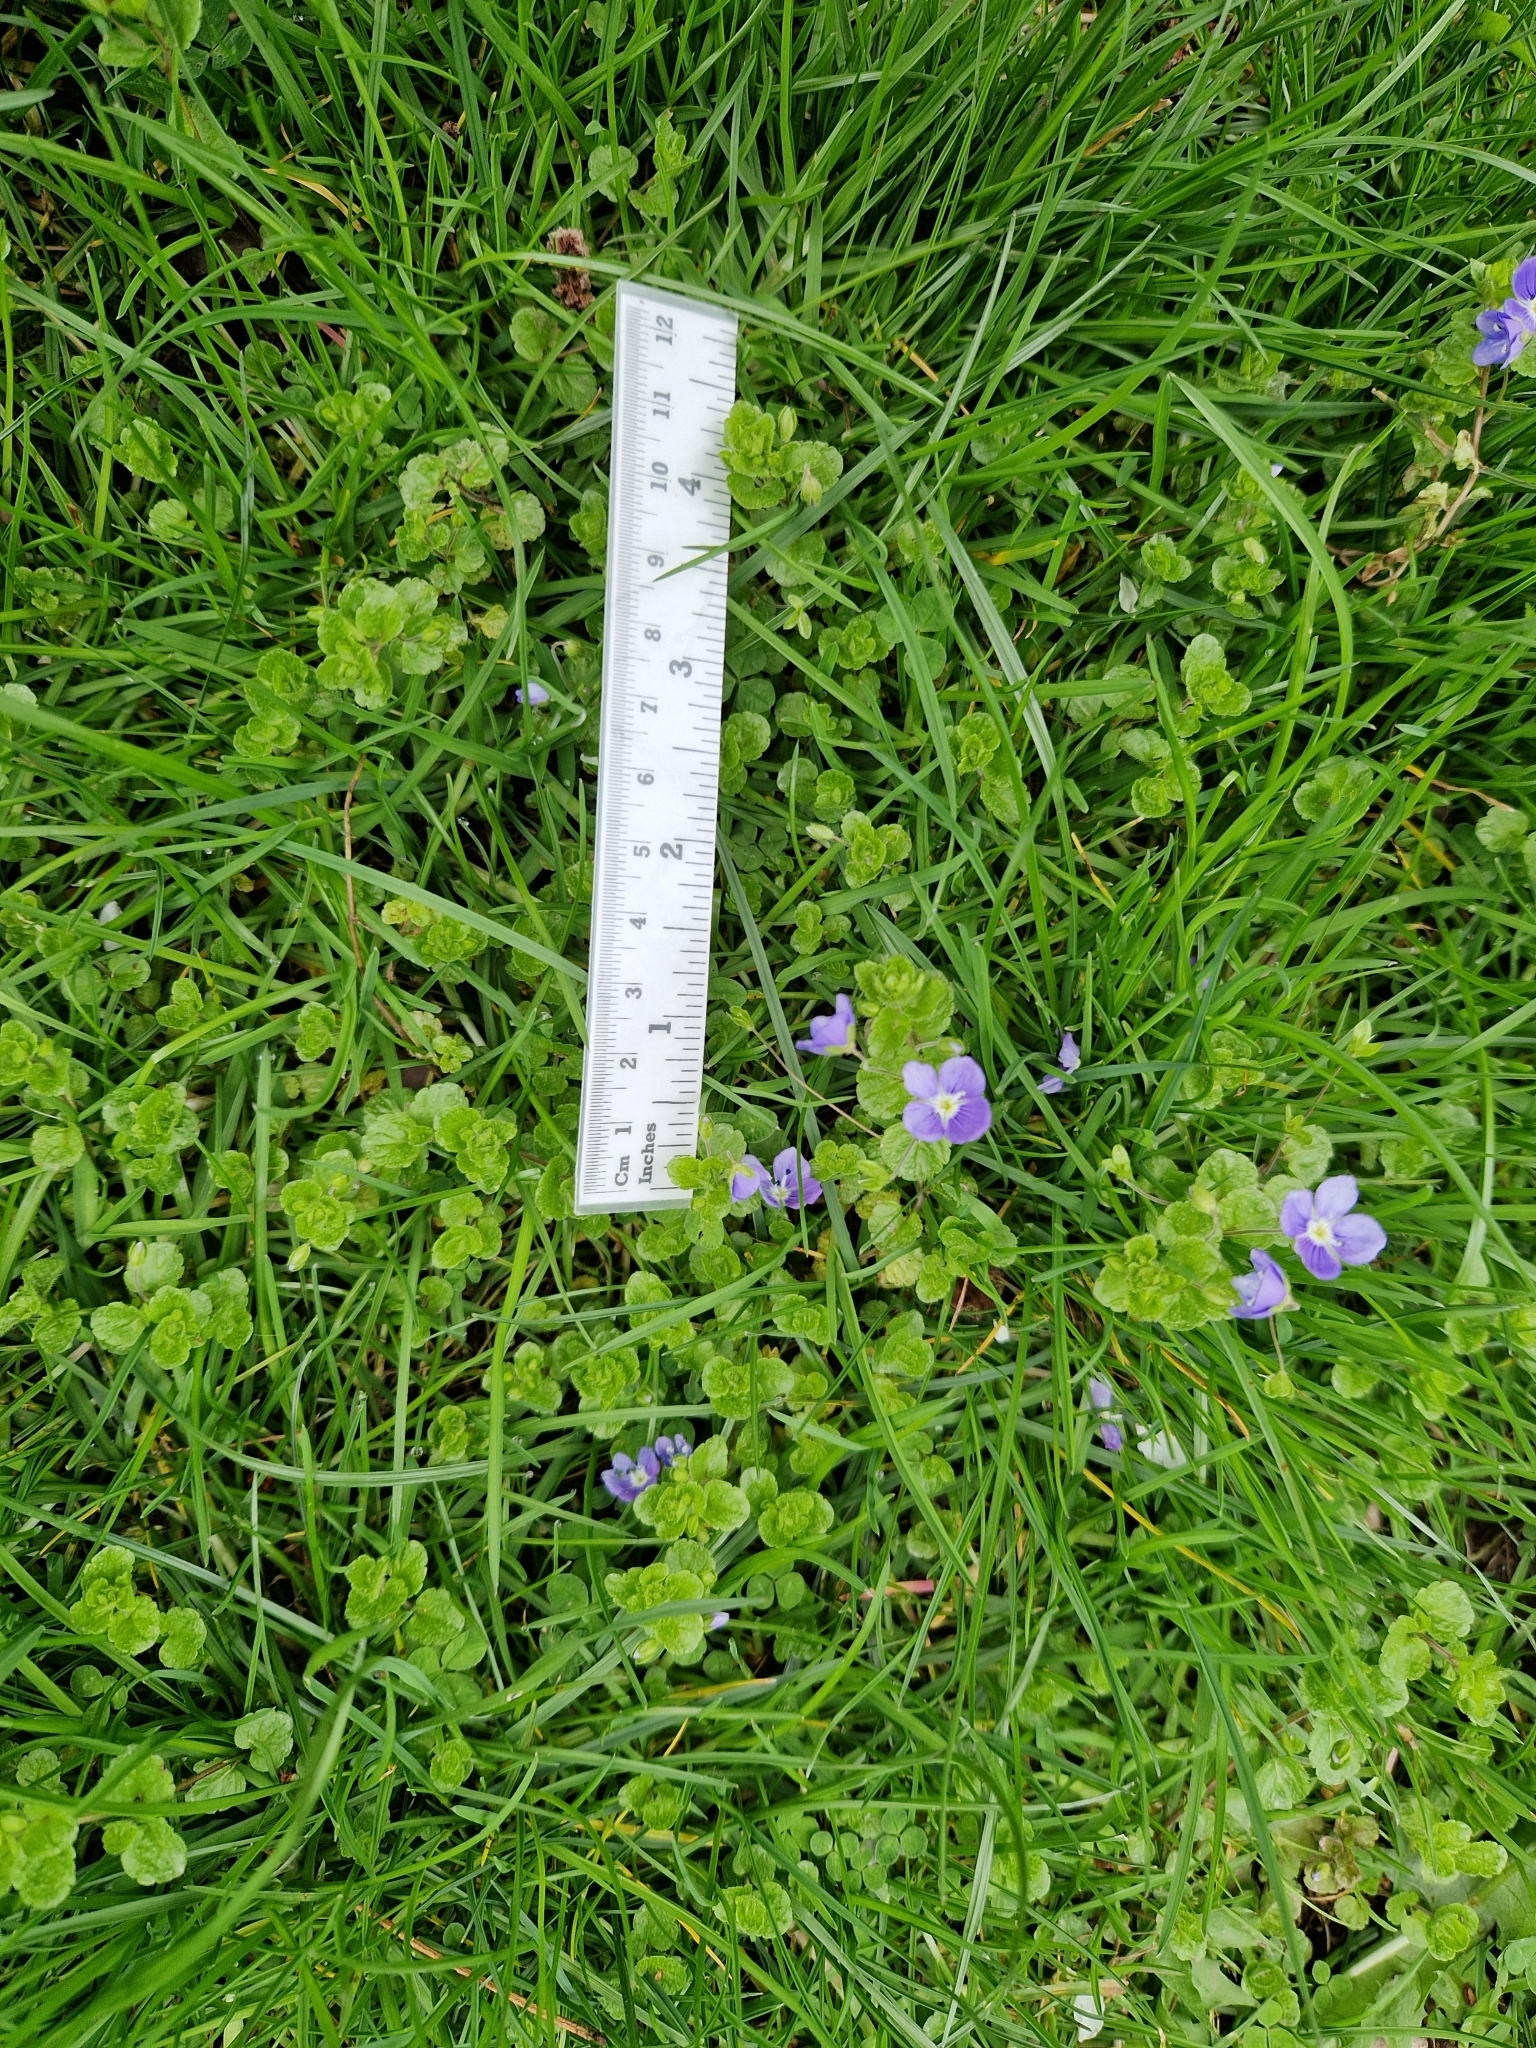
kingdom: Plantae
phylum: Tracheophyta
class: Magnoliopsida
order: Lamiales
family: Plantaginaceae
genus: Veronica
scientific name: Veronica filiformis
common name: Slender speedwell
